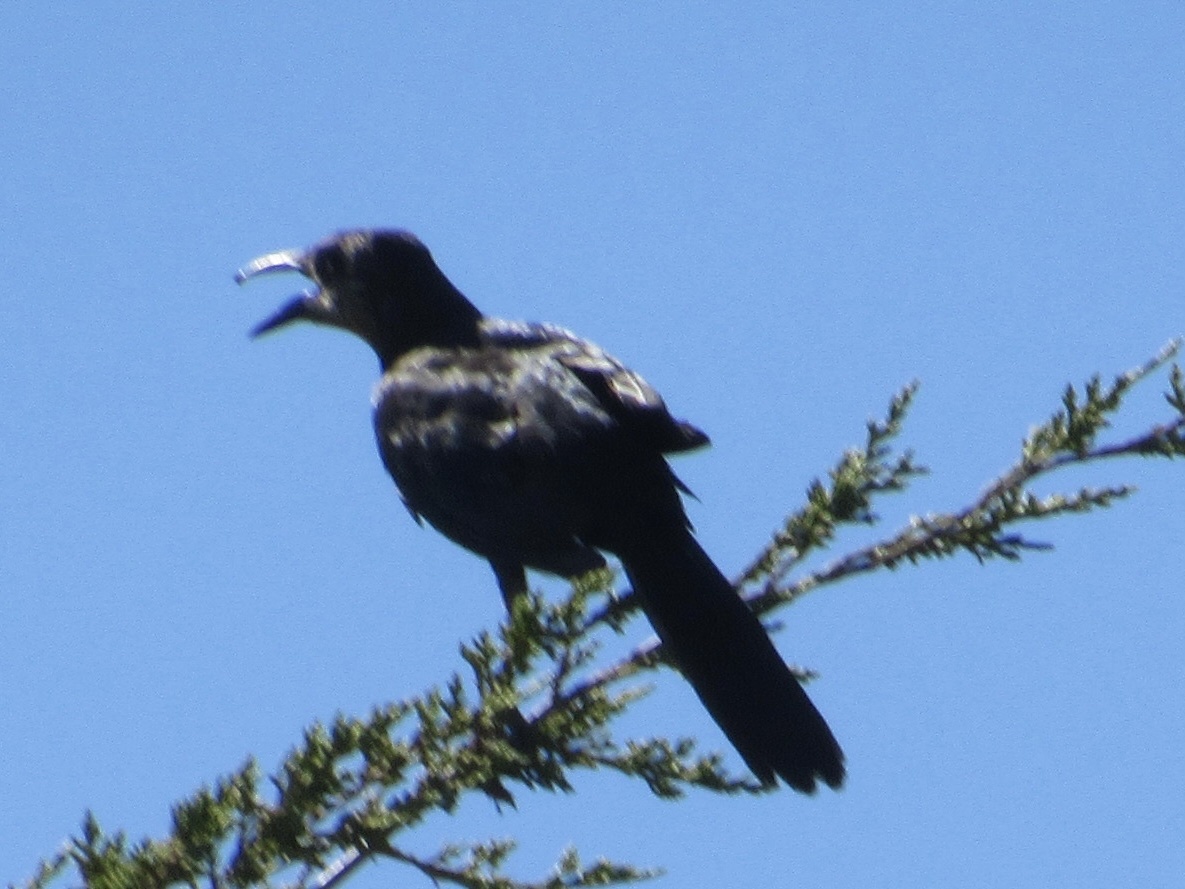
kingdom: Animalia
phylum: Chordata
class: Aves
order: Passeriformes
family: Icteridae
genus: Quiscalus
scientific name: Quiscalus mexicanus
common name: Great-tailed grackle
